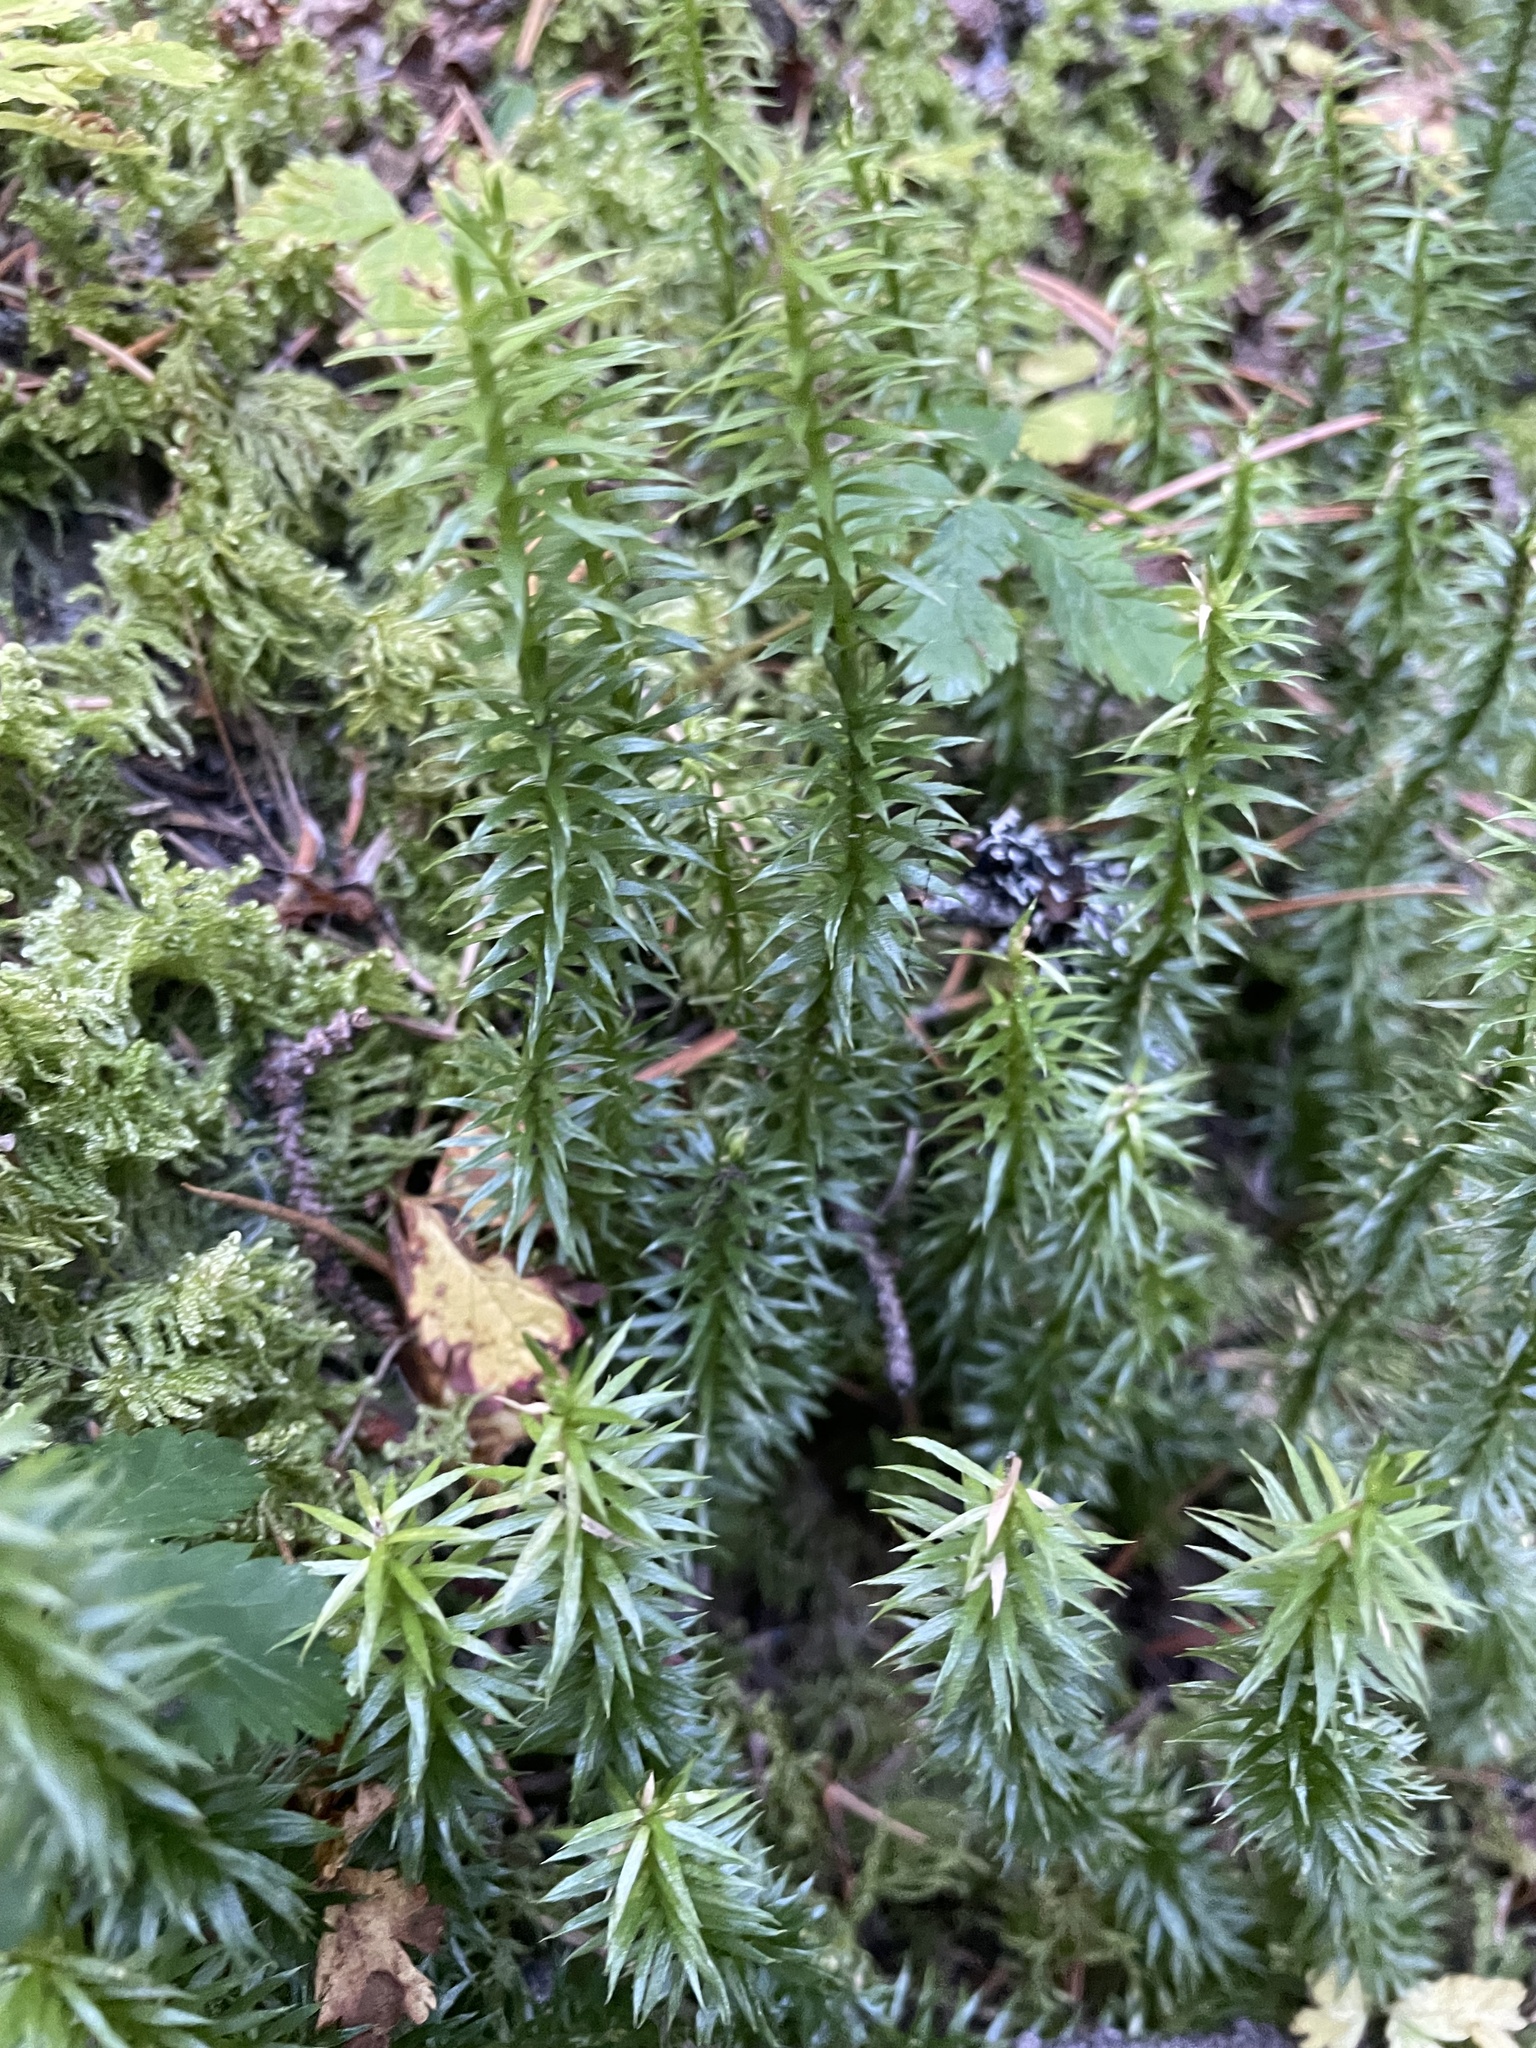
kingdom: Plantae
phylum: Tracheophyta
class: Lycopodiopsida
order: Lycopodiales
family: Lycopodiaceae
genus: Spinulum
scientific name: Spinulum annotinum
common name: Interrupted club-moss
